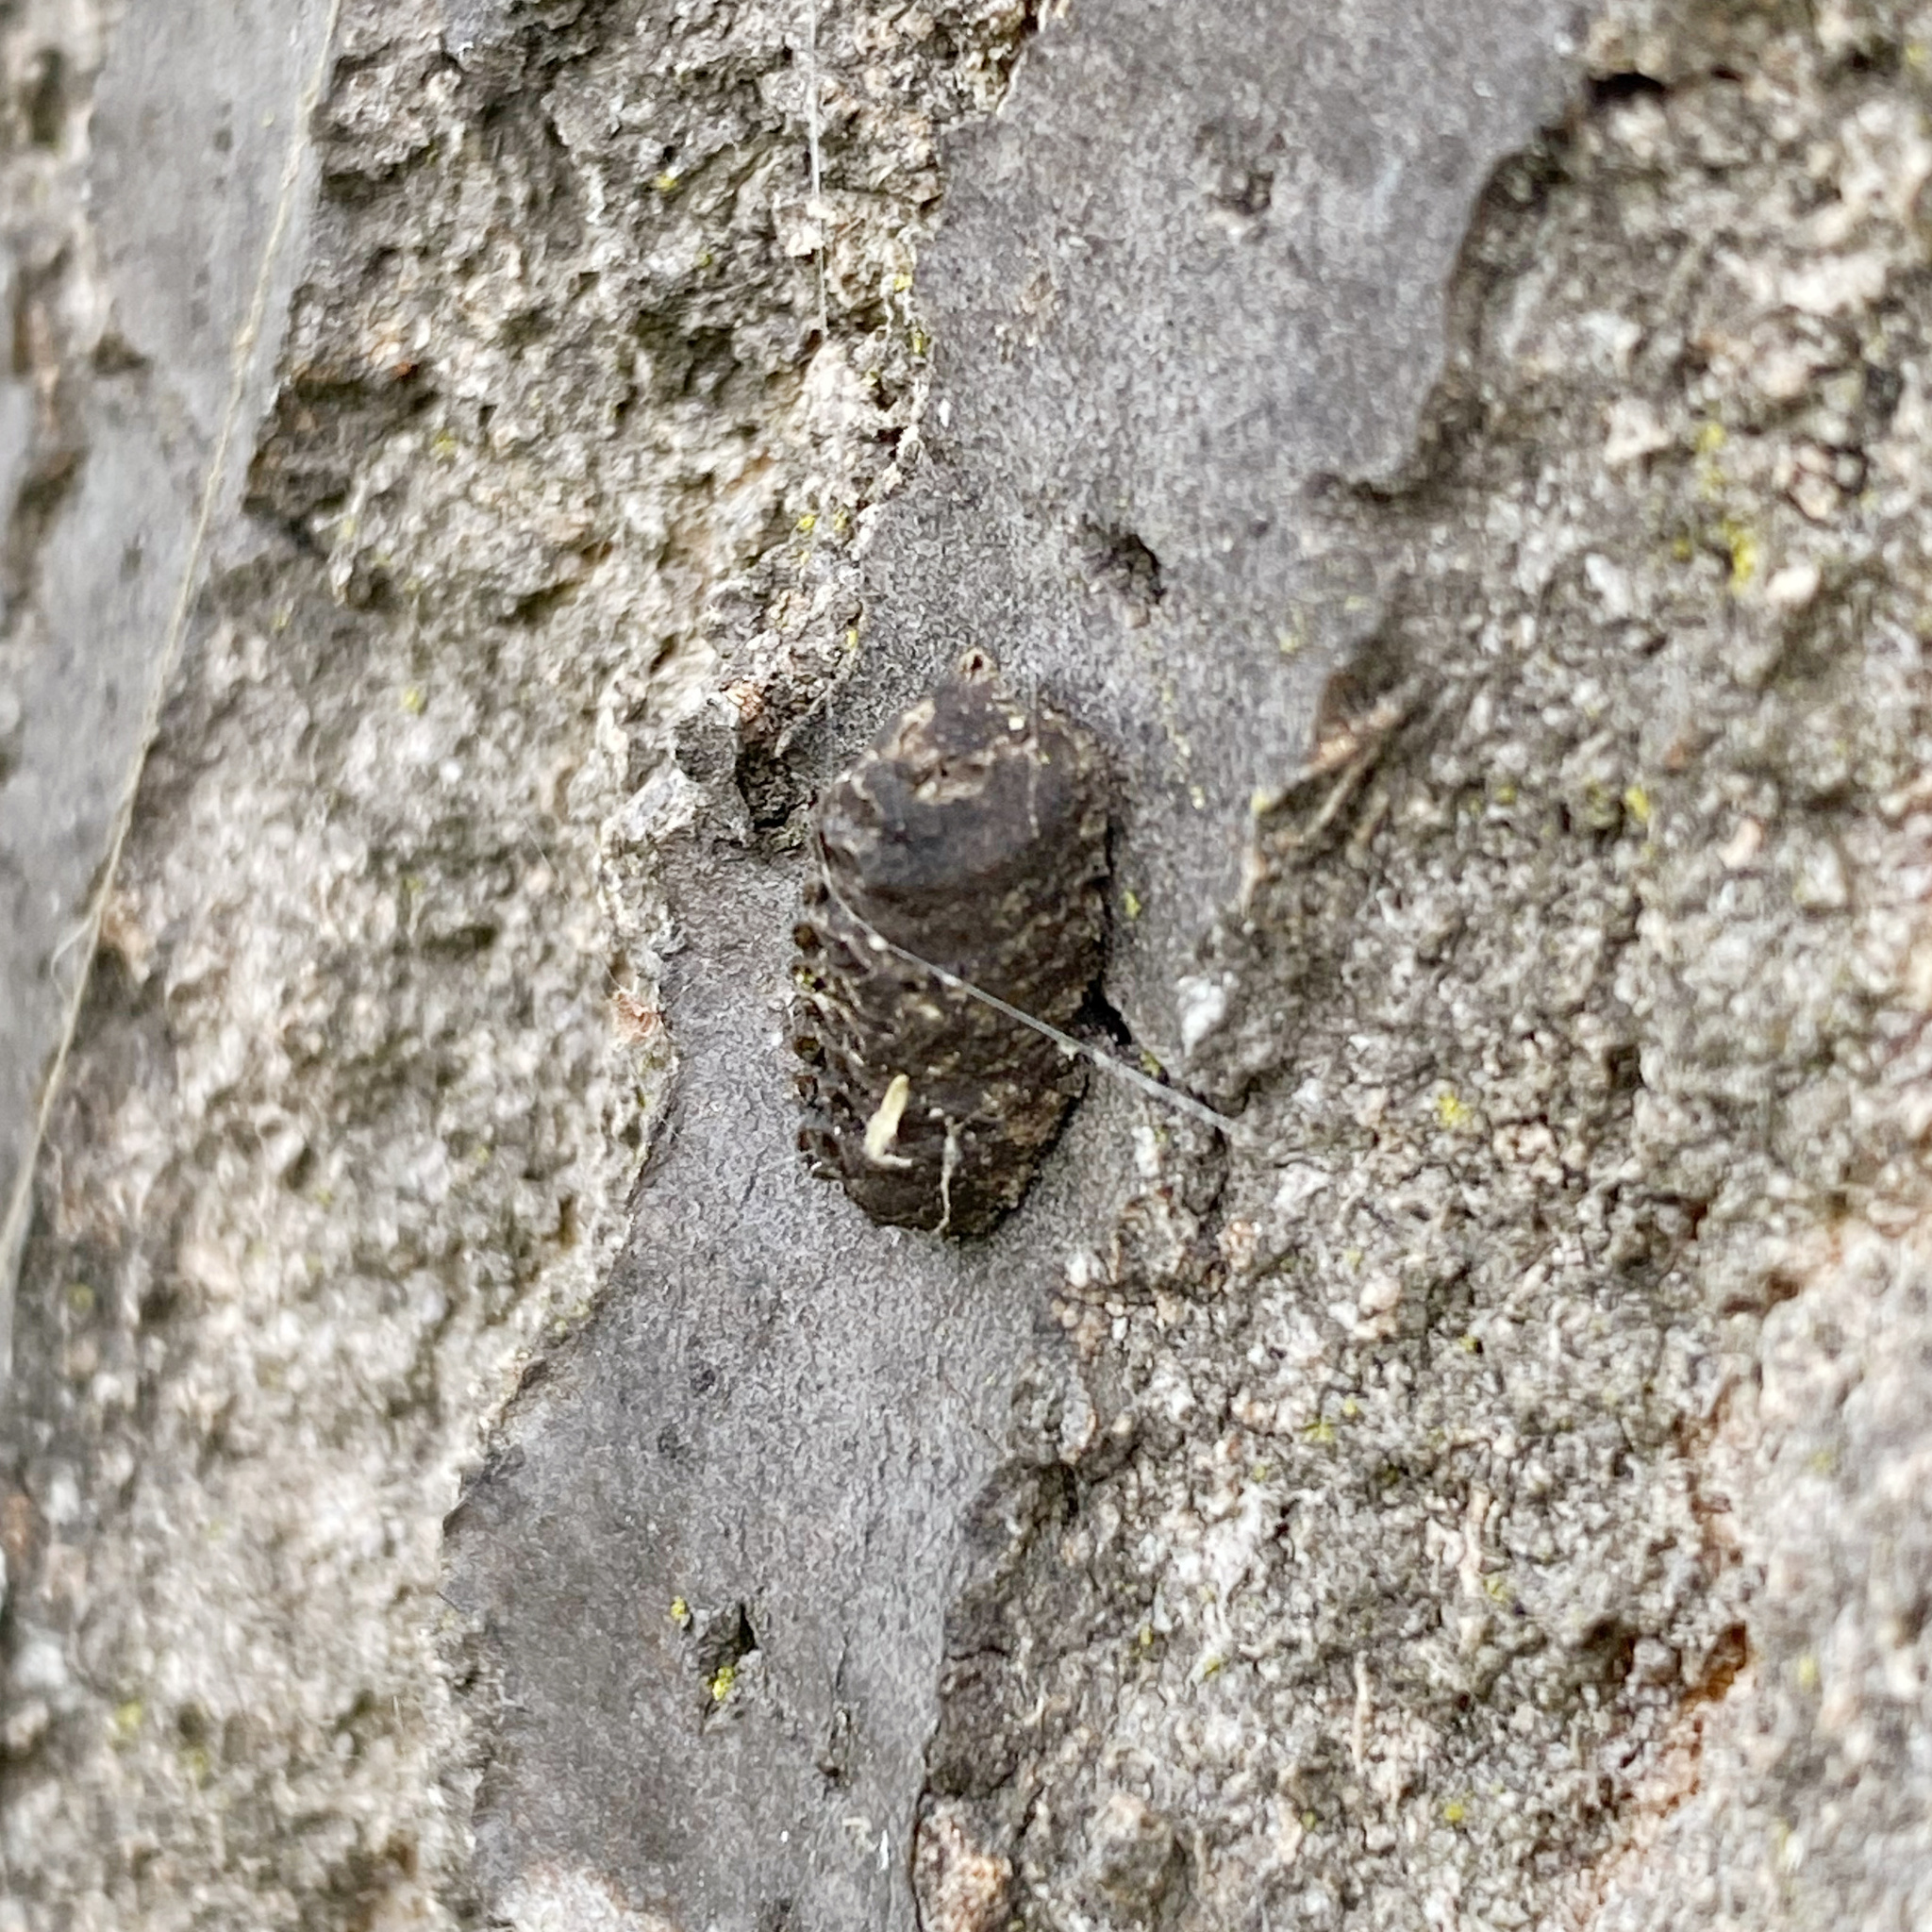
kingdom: Animalia
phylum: Arthropoda
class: Insecta
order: Mantodea
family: Mantidae
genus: Orthodera
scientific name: Orthodera novaezealandiae
